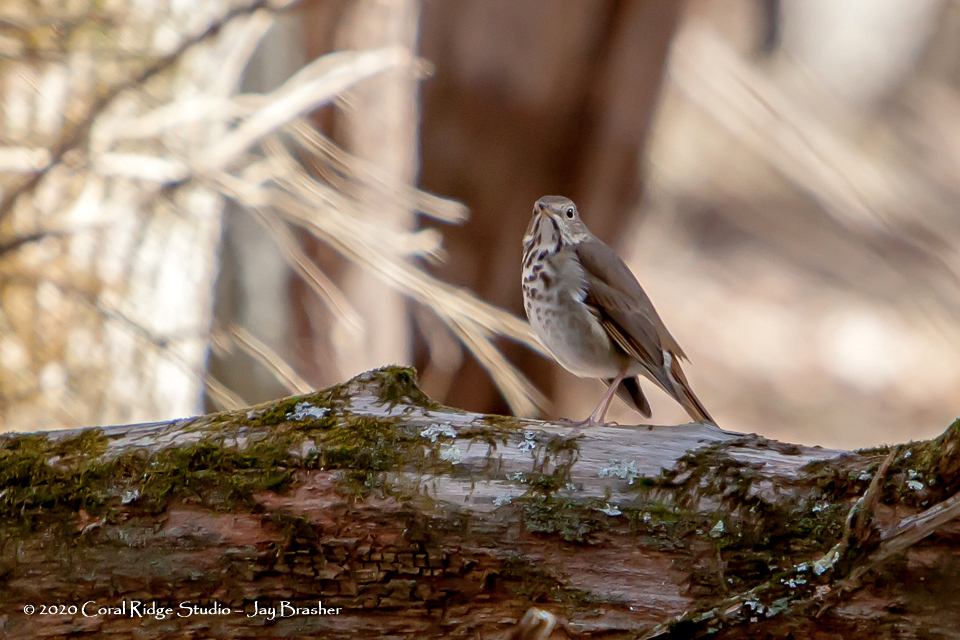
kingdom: Animalia
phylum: Chordata
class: Aves
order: Passeriformes
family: Turdidae
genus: Catharus
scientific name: Catharus guttatus
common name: Hermit thrush
